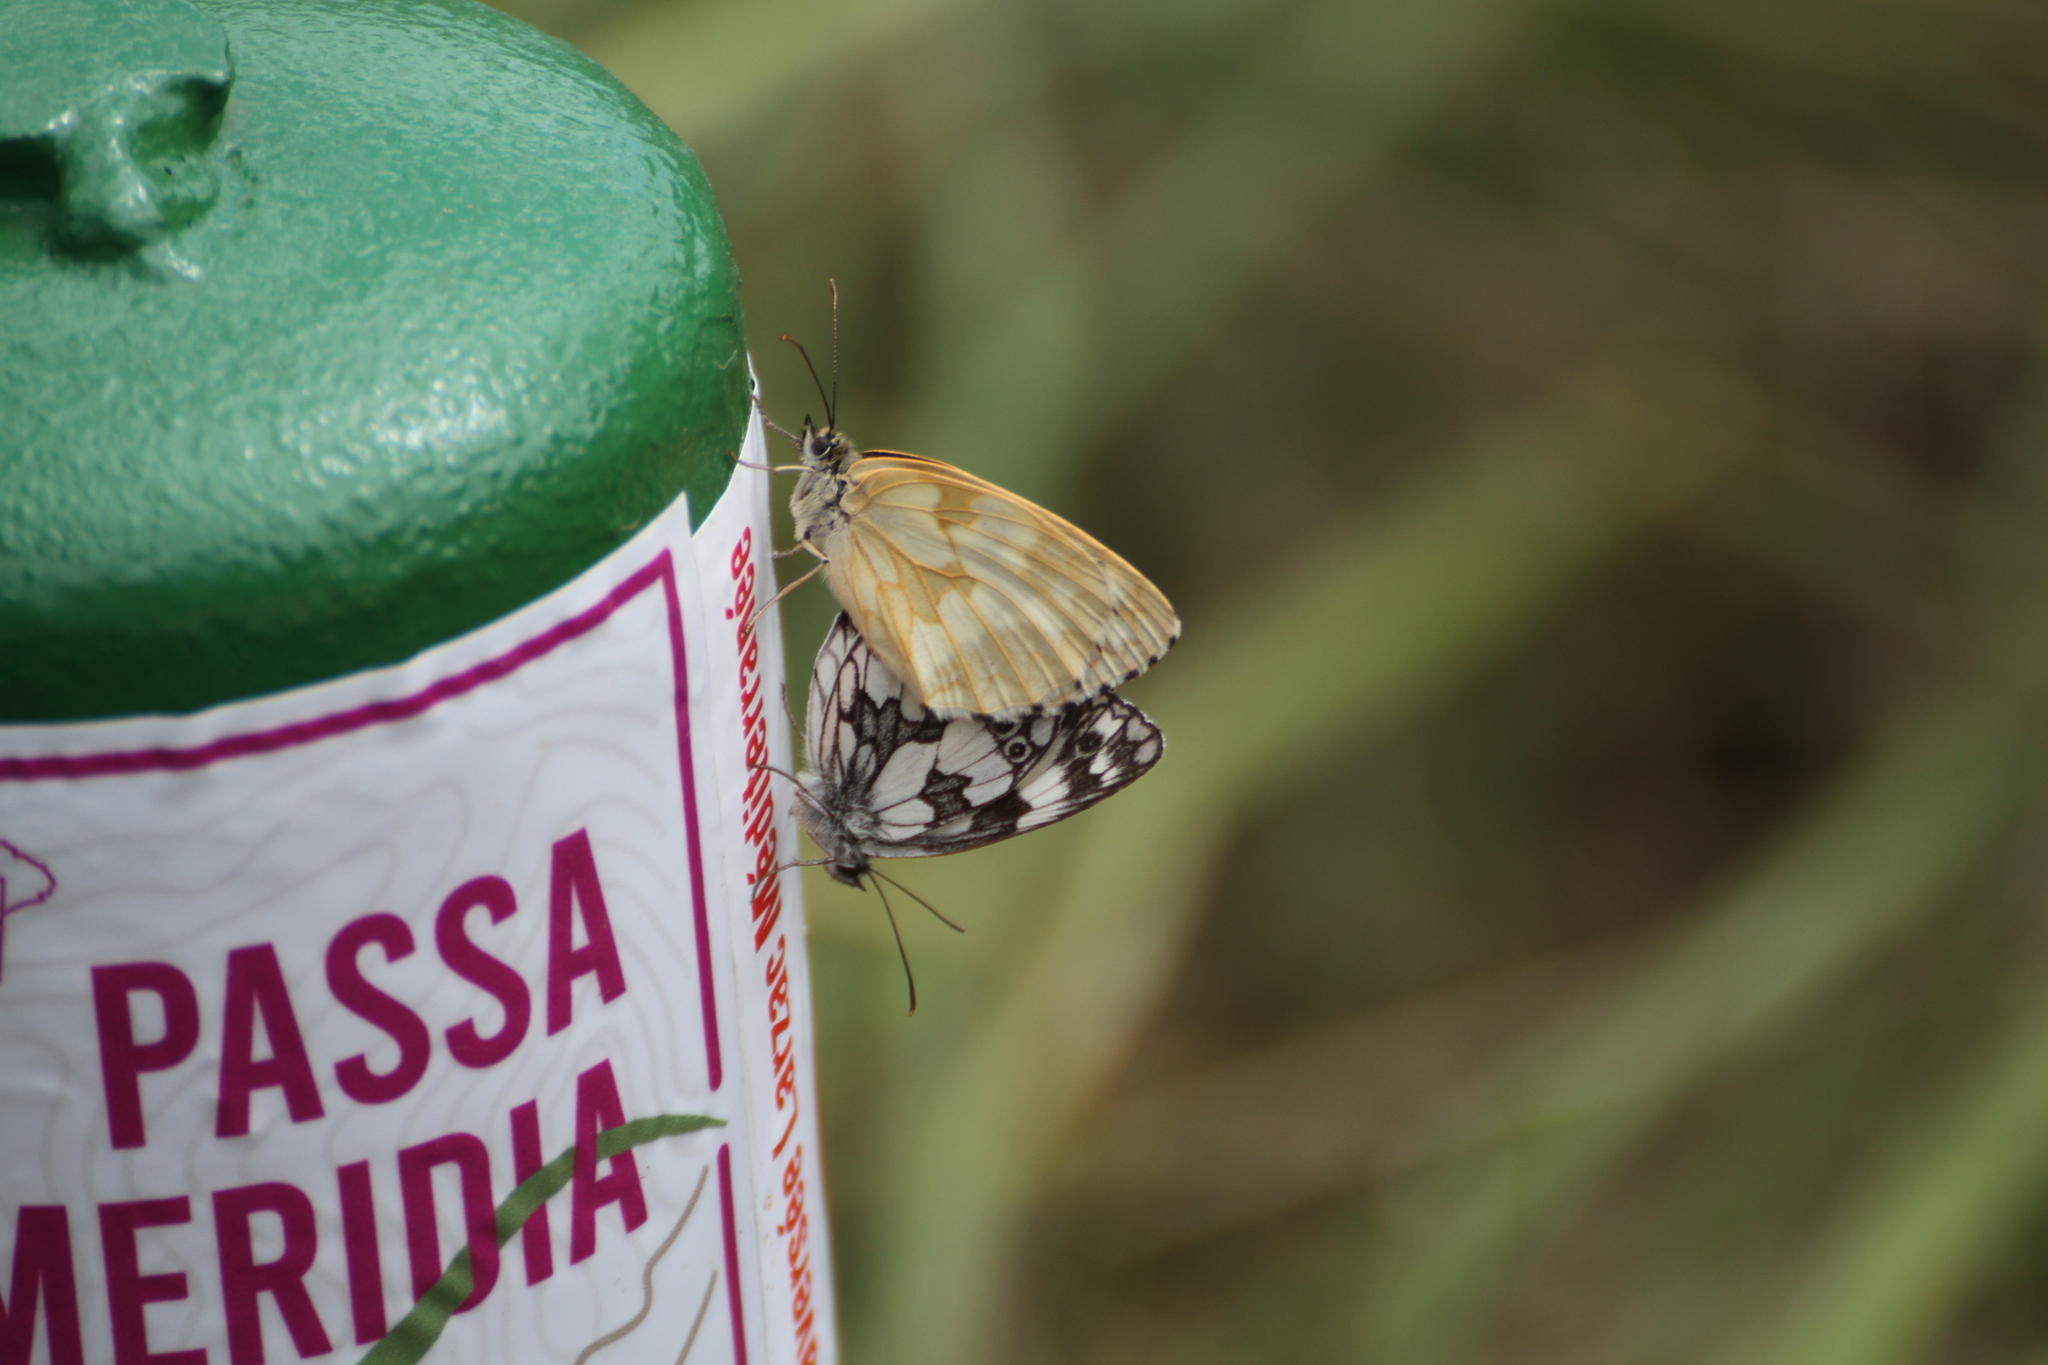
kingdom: Animalia
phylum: Arthropoda
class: Insecta
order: Lepidoptera
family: Nymphalidae
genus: Melanargia
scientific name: Melanargia galathea
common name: Marbled white
